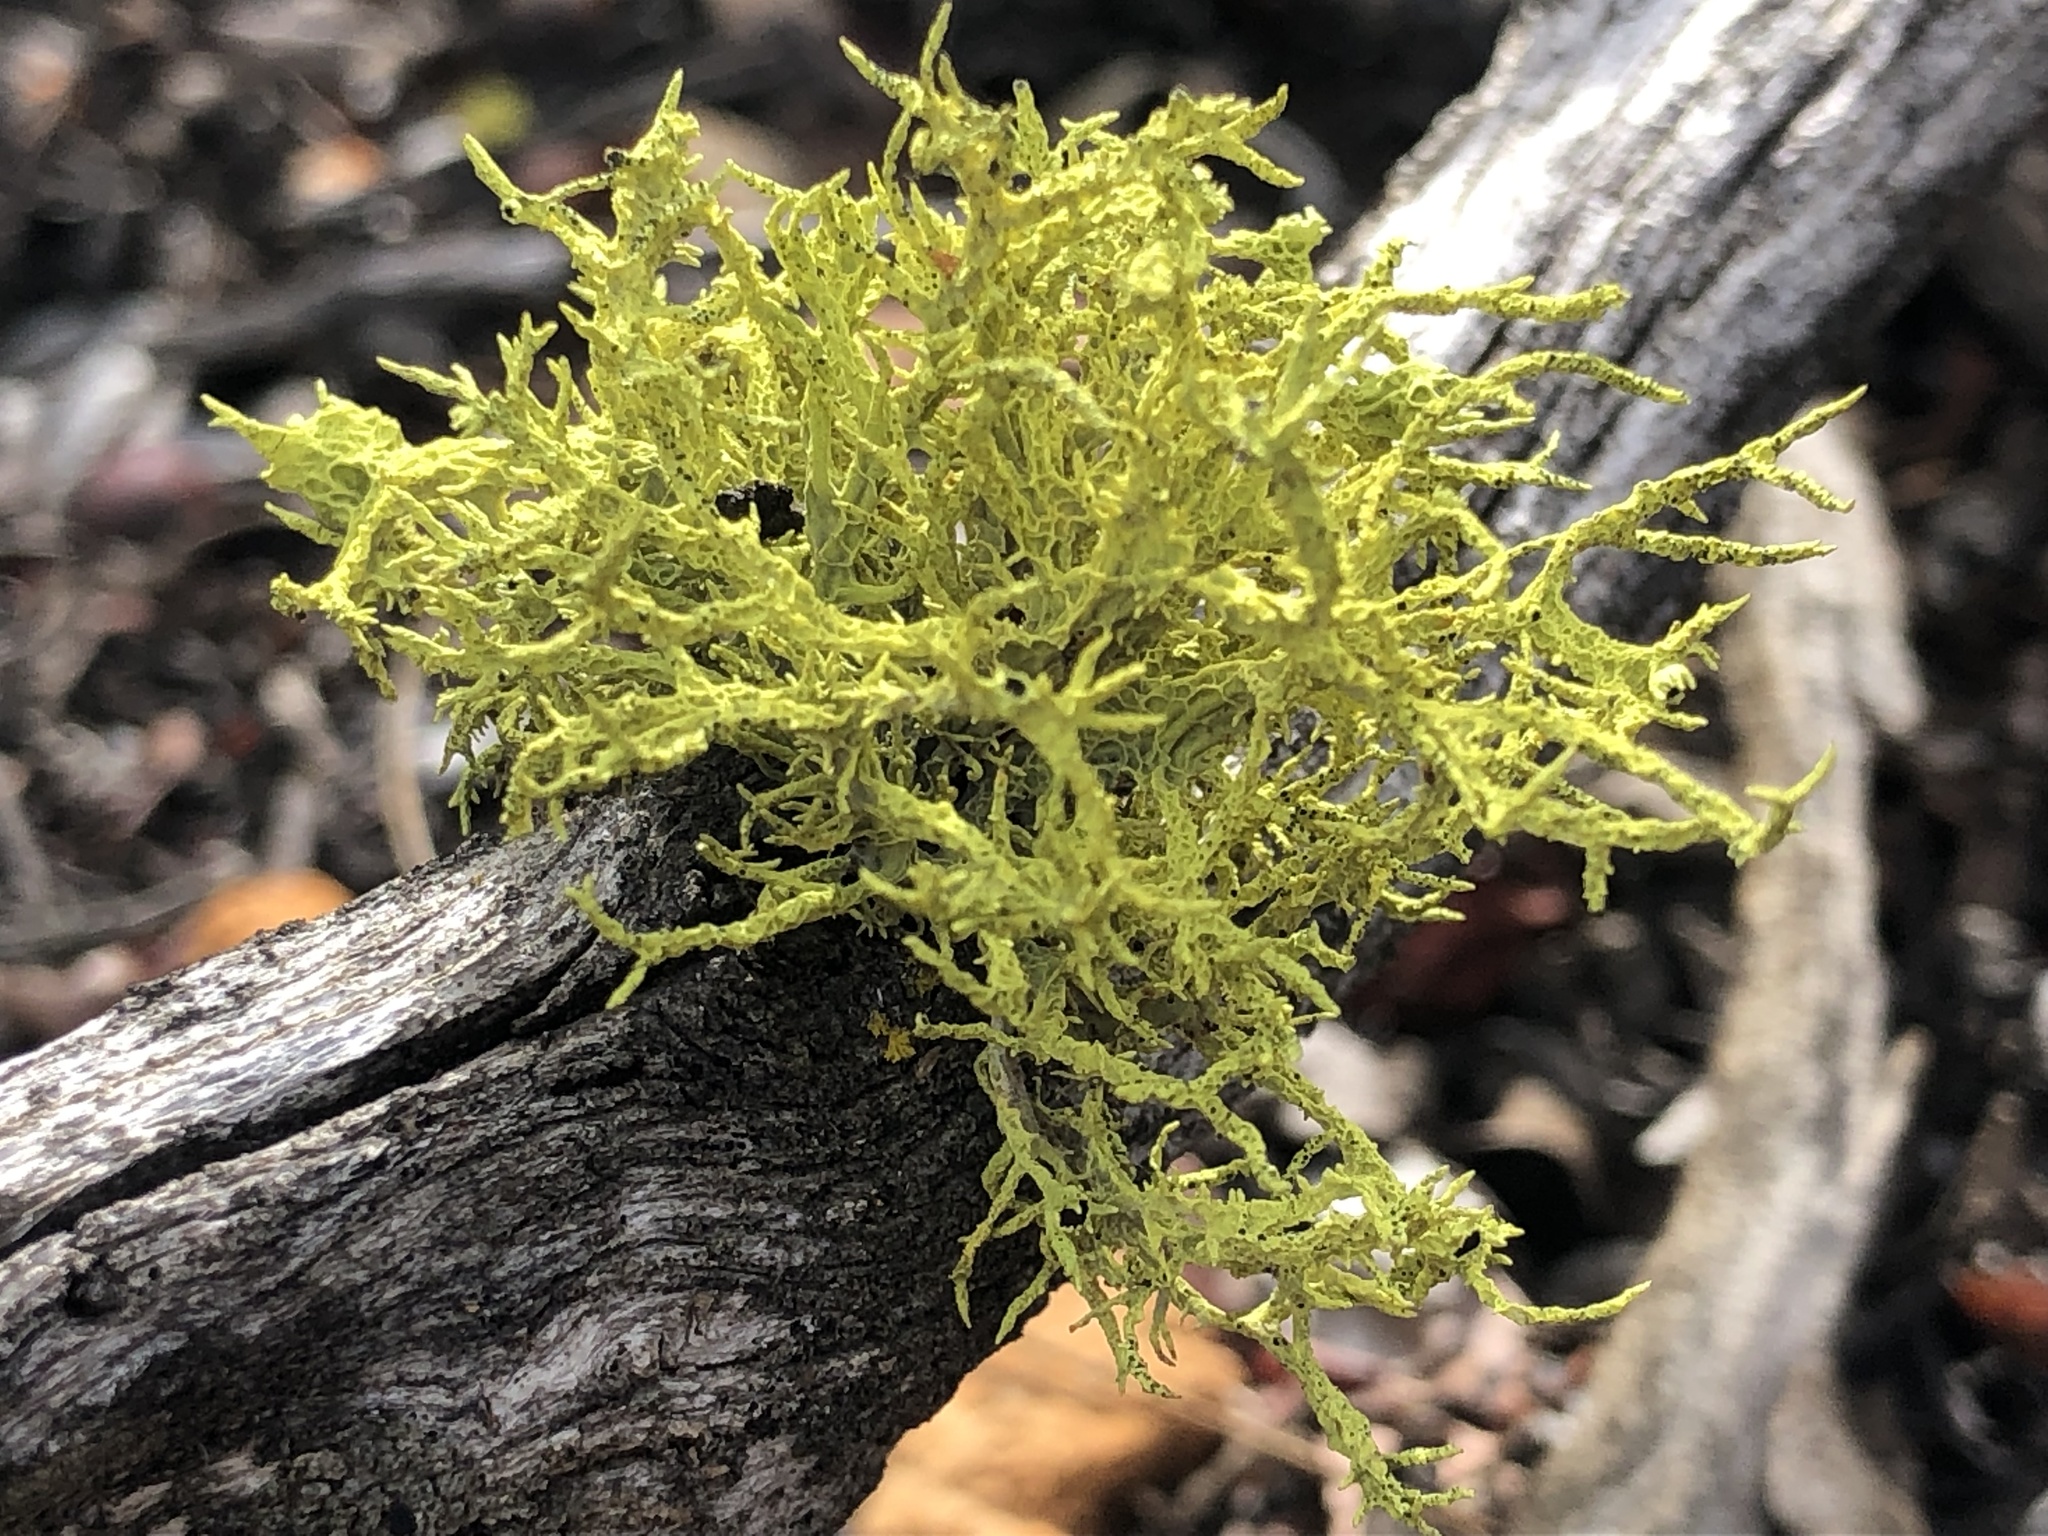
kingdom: Fungi
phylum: Ascomycota
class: Lecanoromycetes
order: Lecanorales
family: Parmeliaceae
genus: Letharia
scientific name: Letharia columbiana
